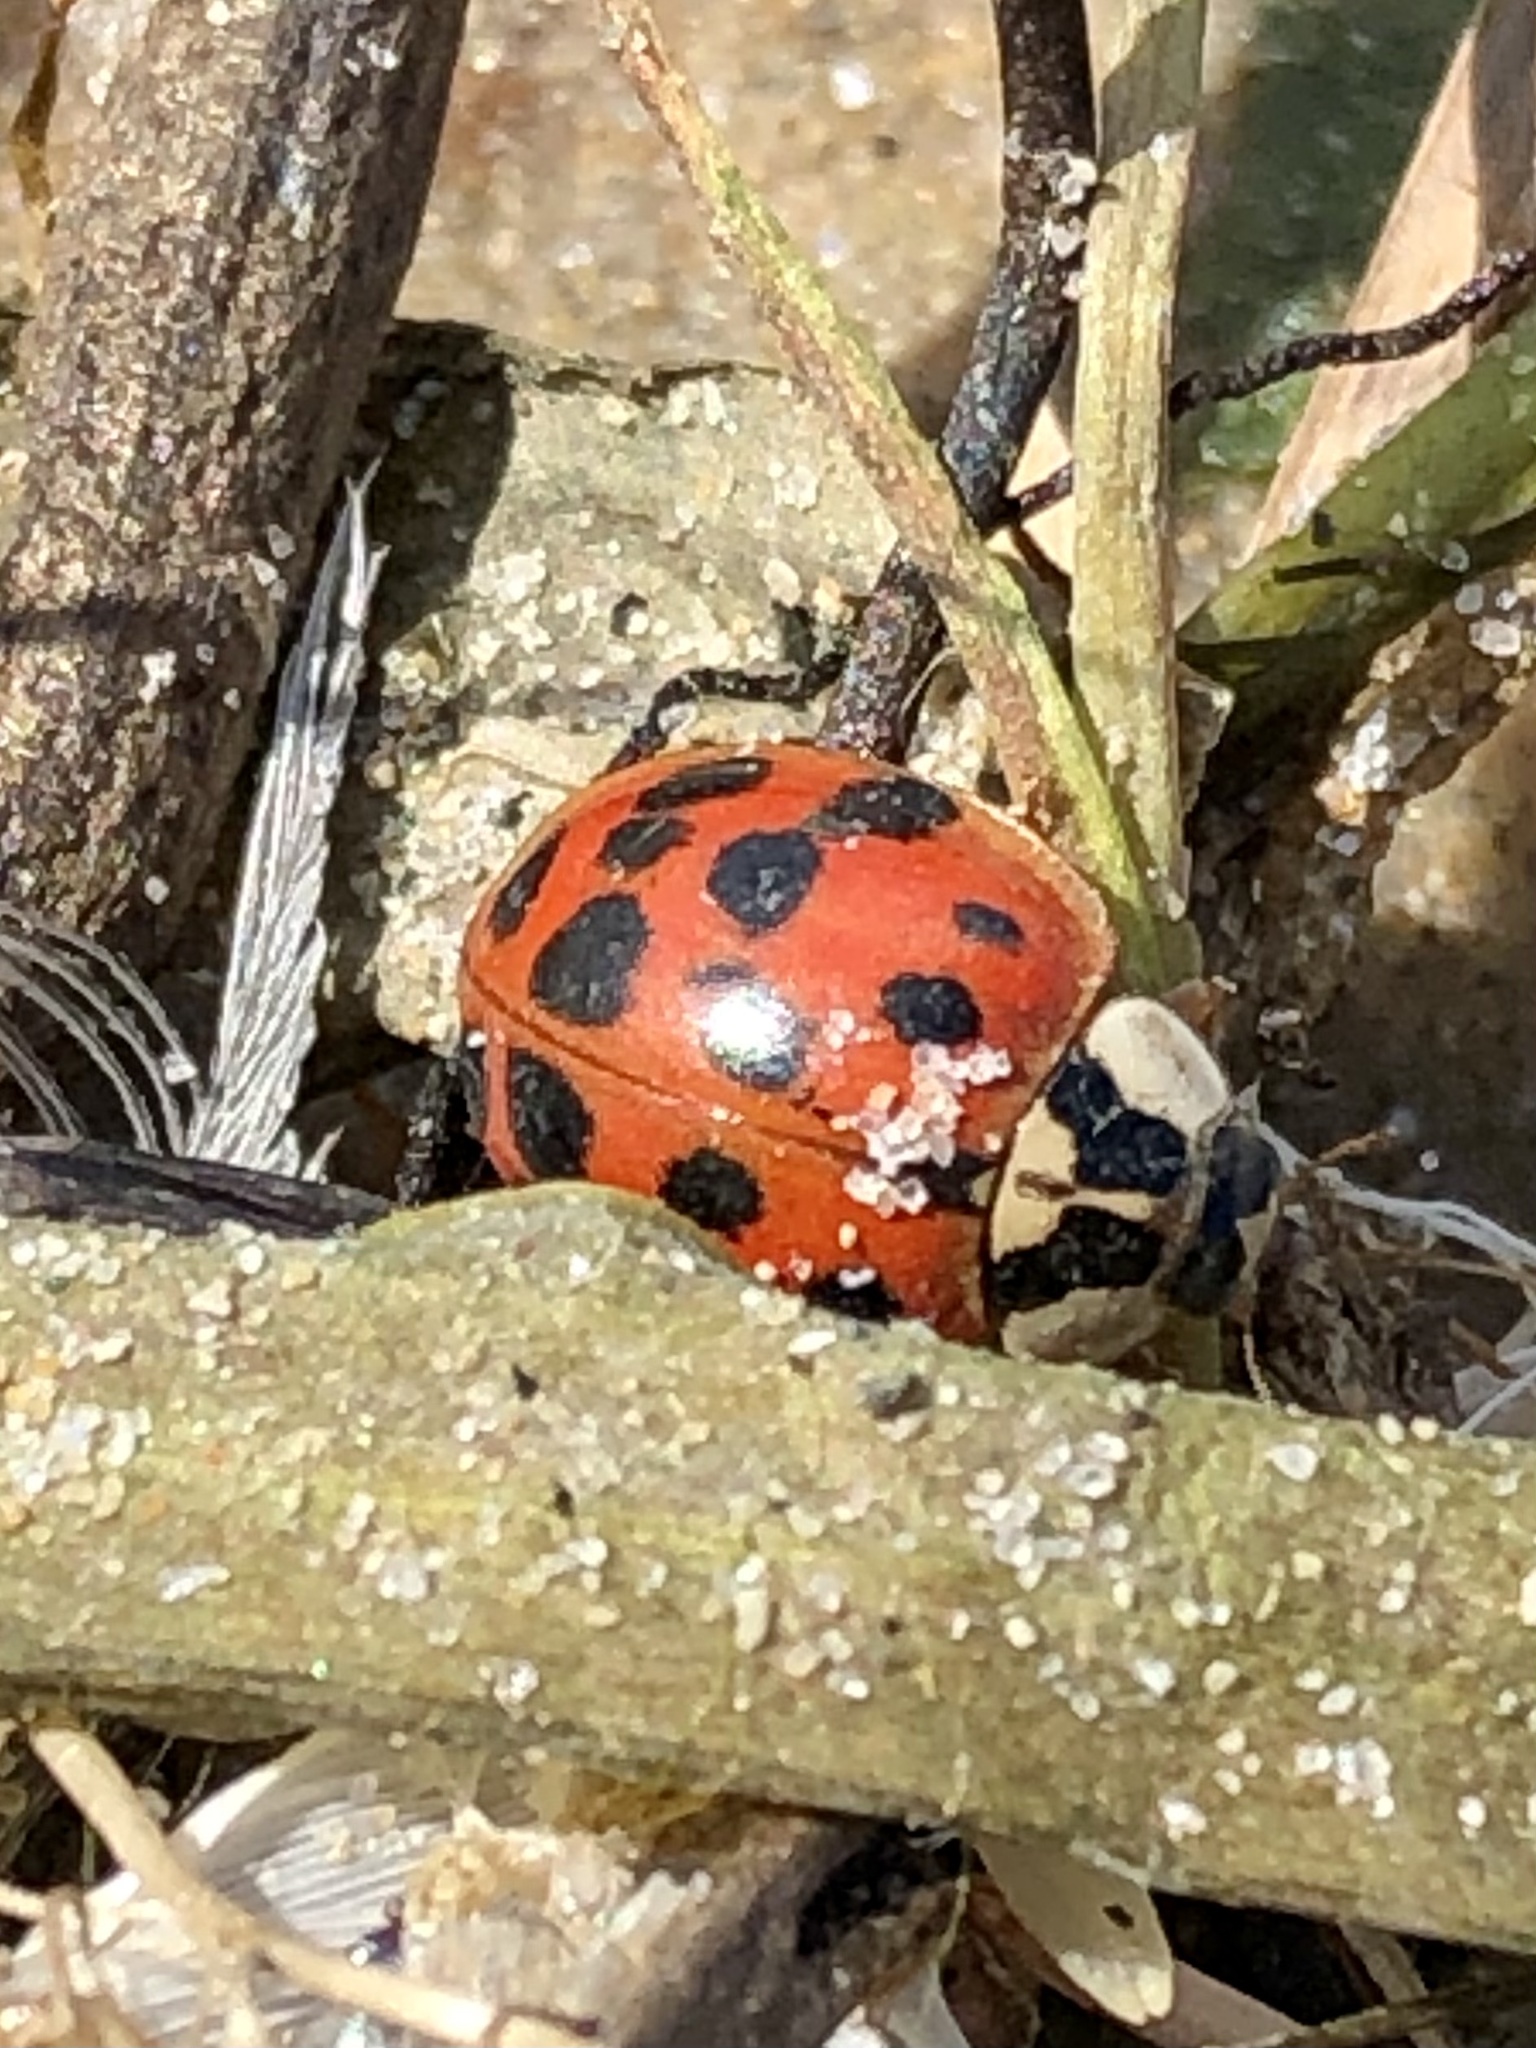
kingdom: Animalia
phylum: Arthropoda
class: Insecta
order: Coleoptera
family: Coccinellidae
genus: Harmonia
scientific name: Harmonia axyridis
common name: Harlequin ladybird
